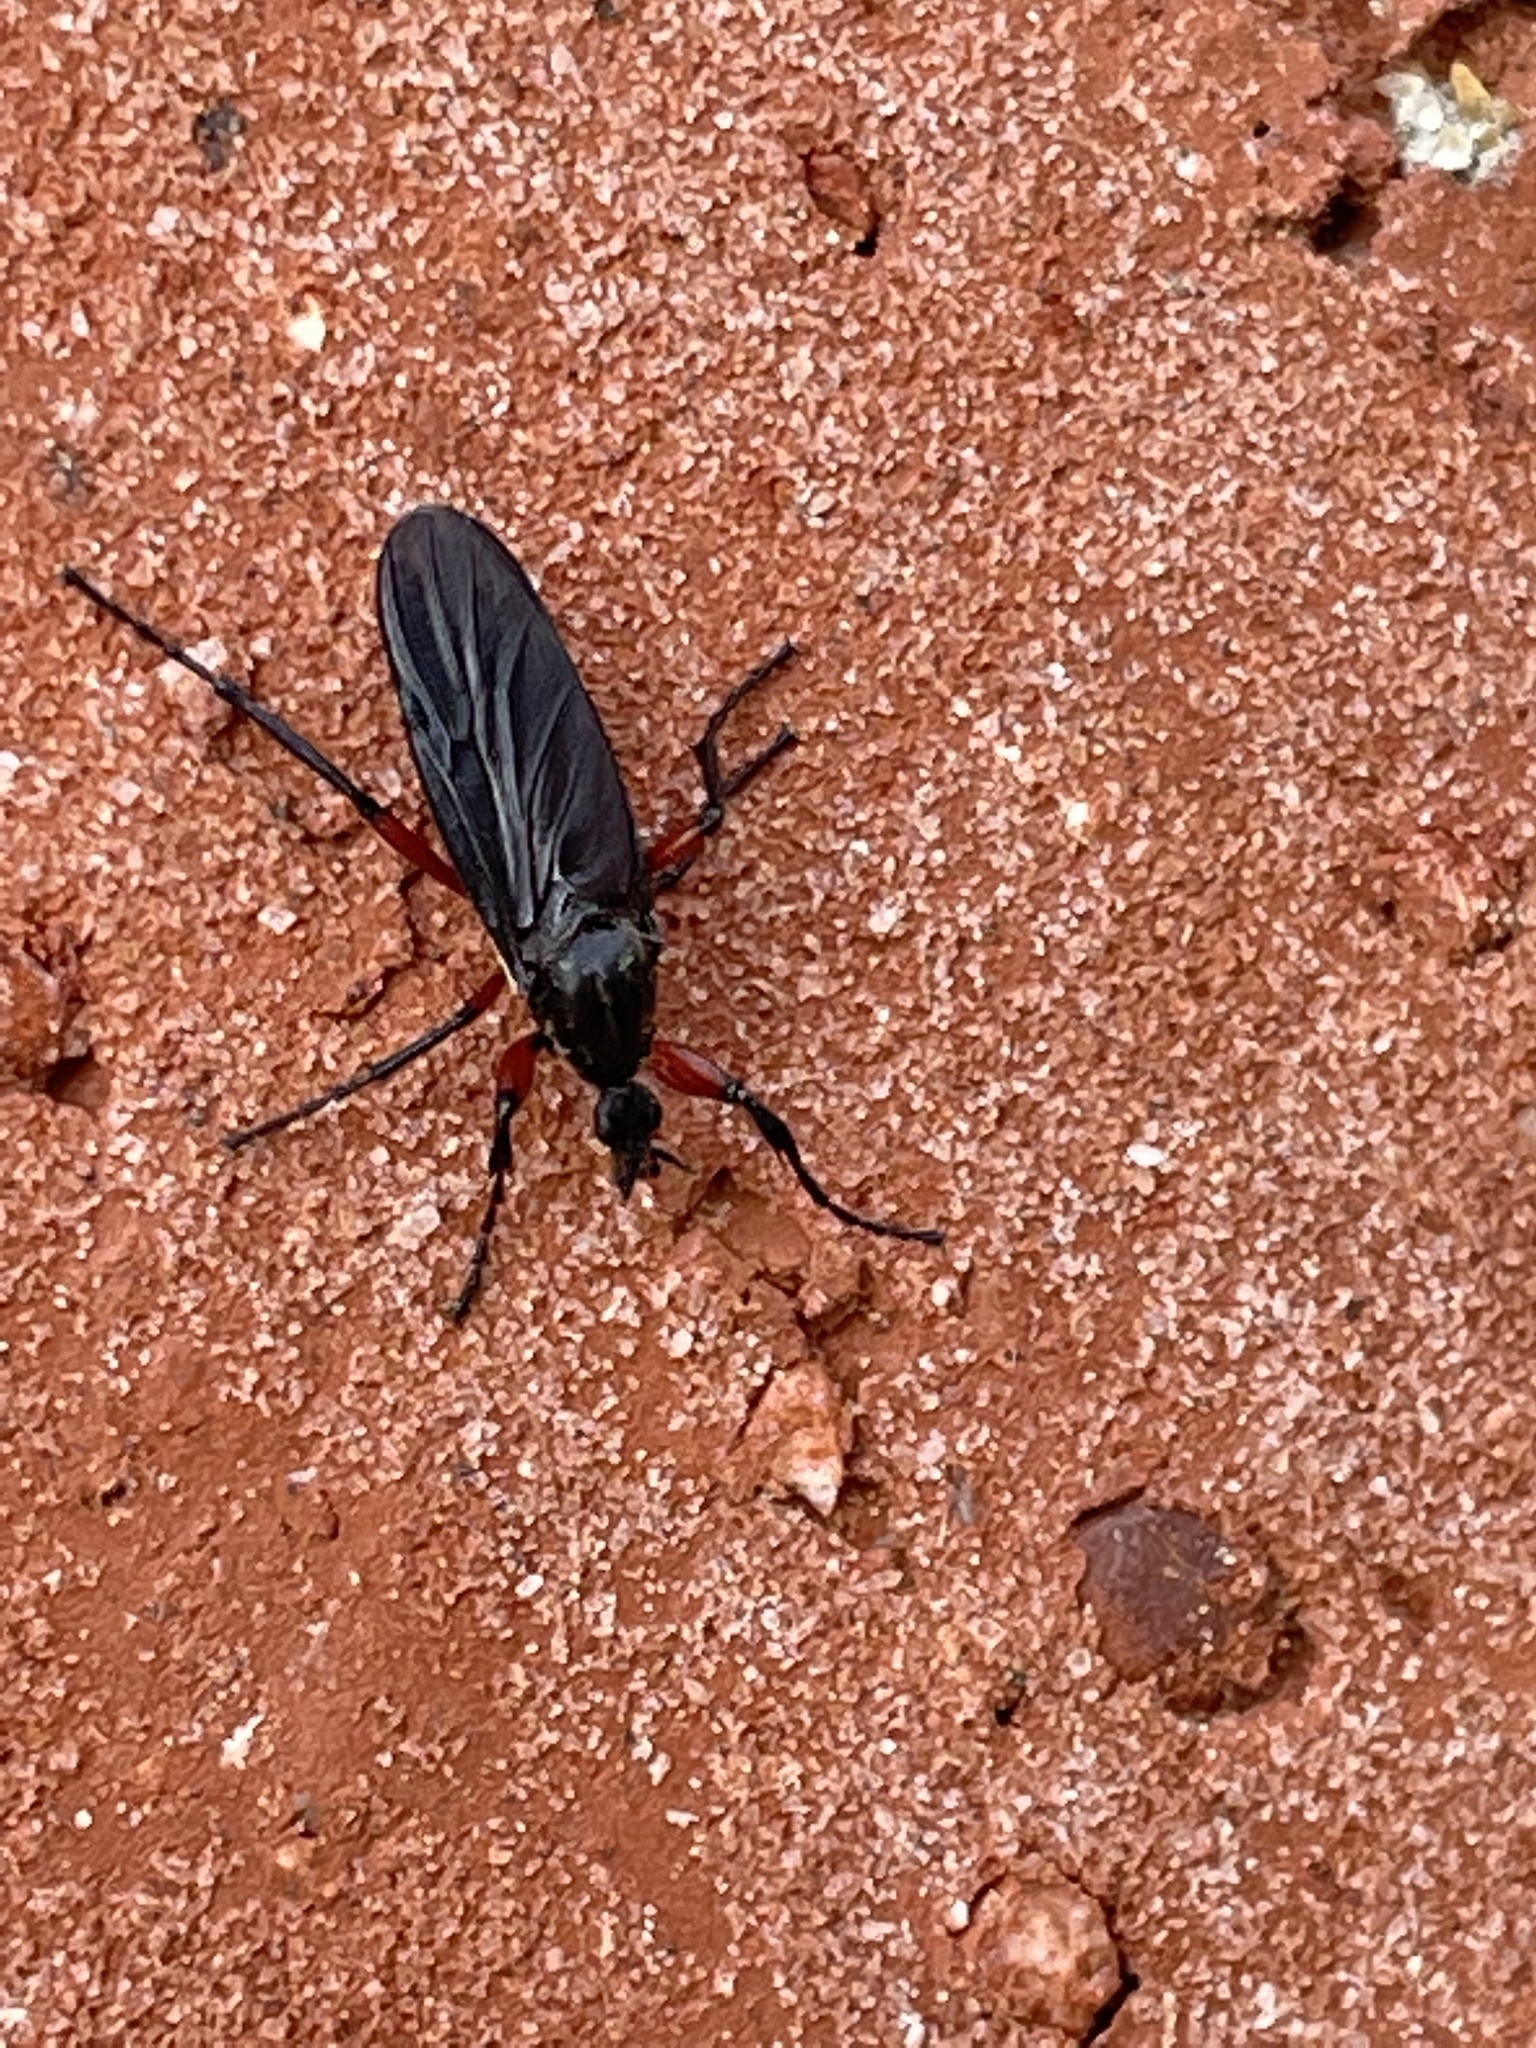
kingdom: Animalia
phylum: Arthropoda
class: Insecta
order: Diptera
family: Bibionidae
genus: Bibio
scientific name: Bibio femoratus
